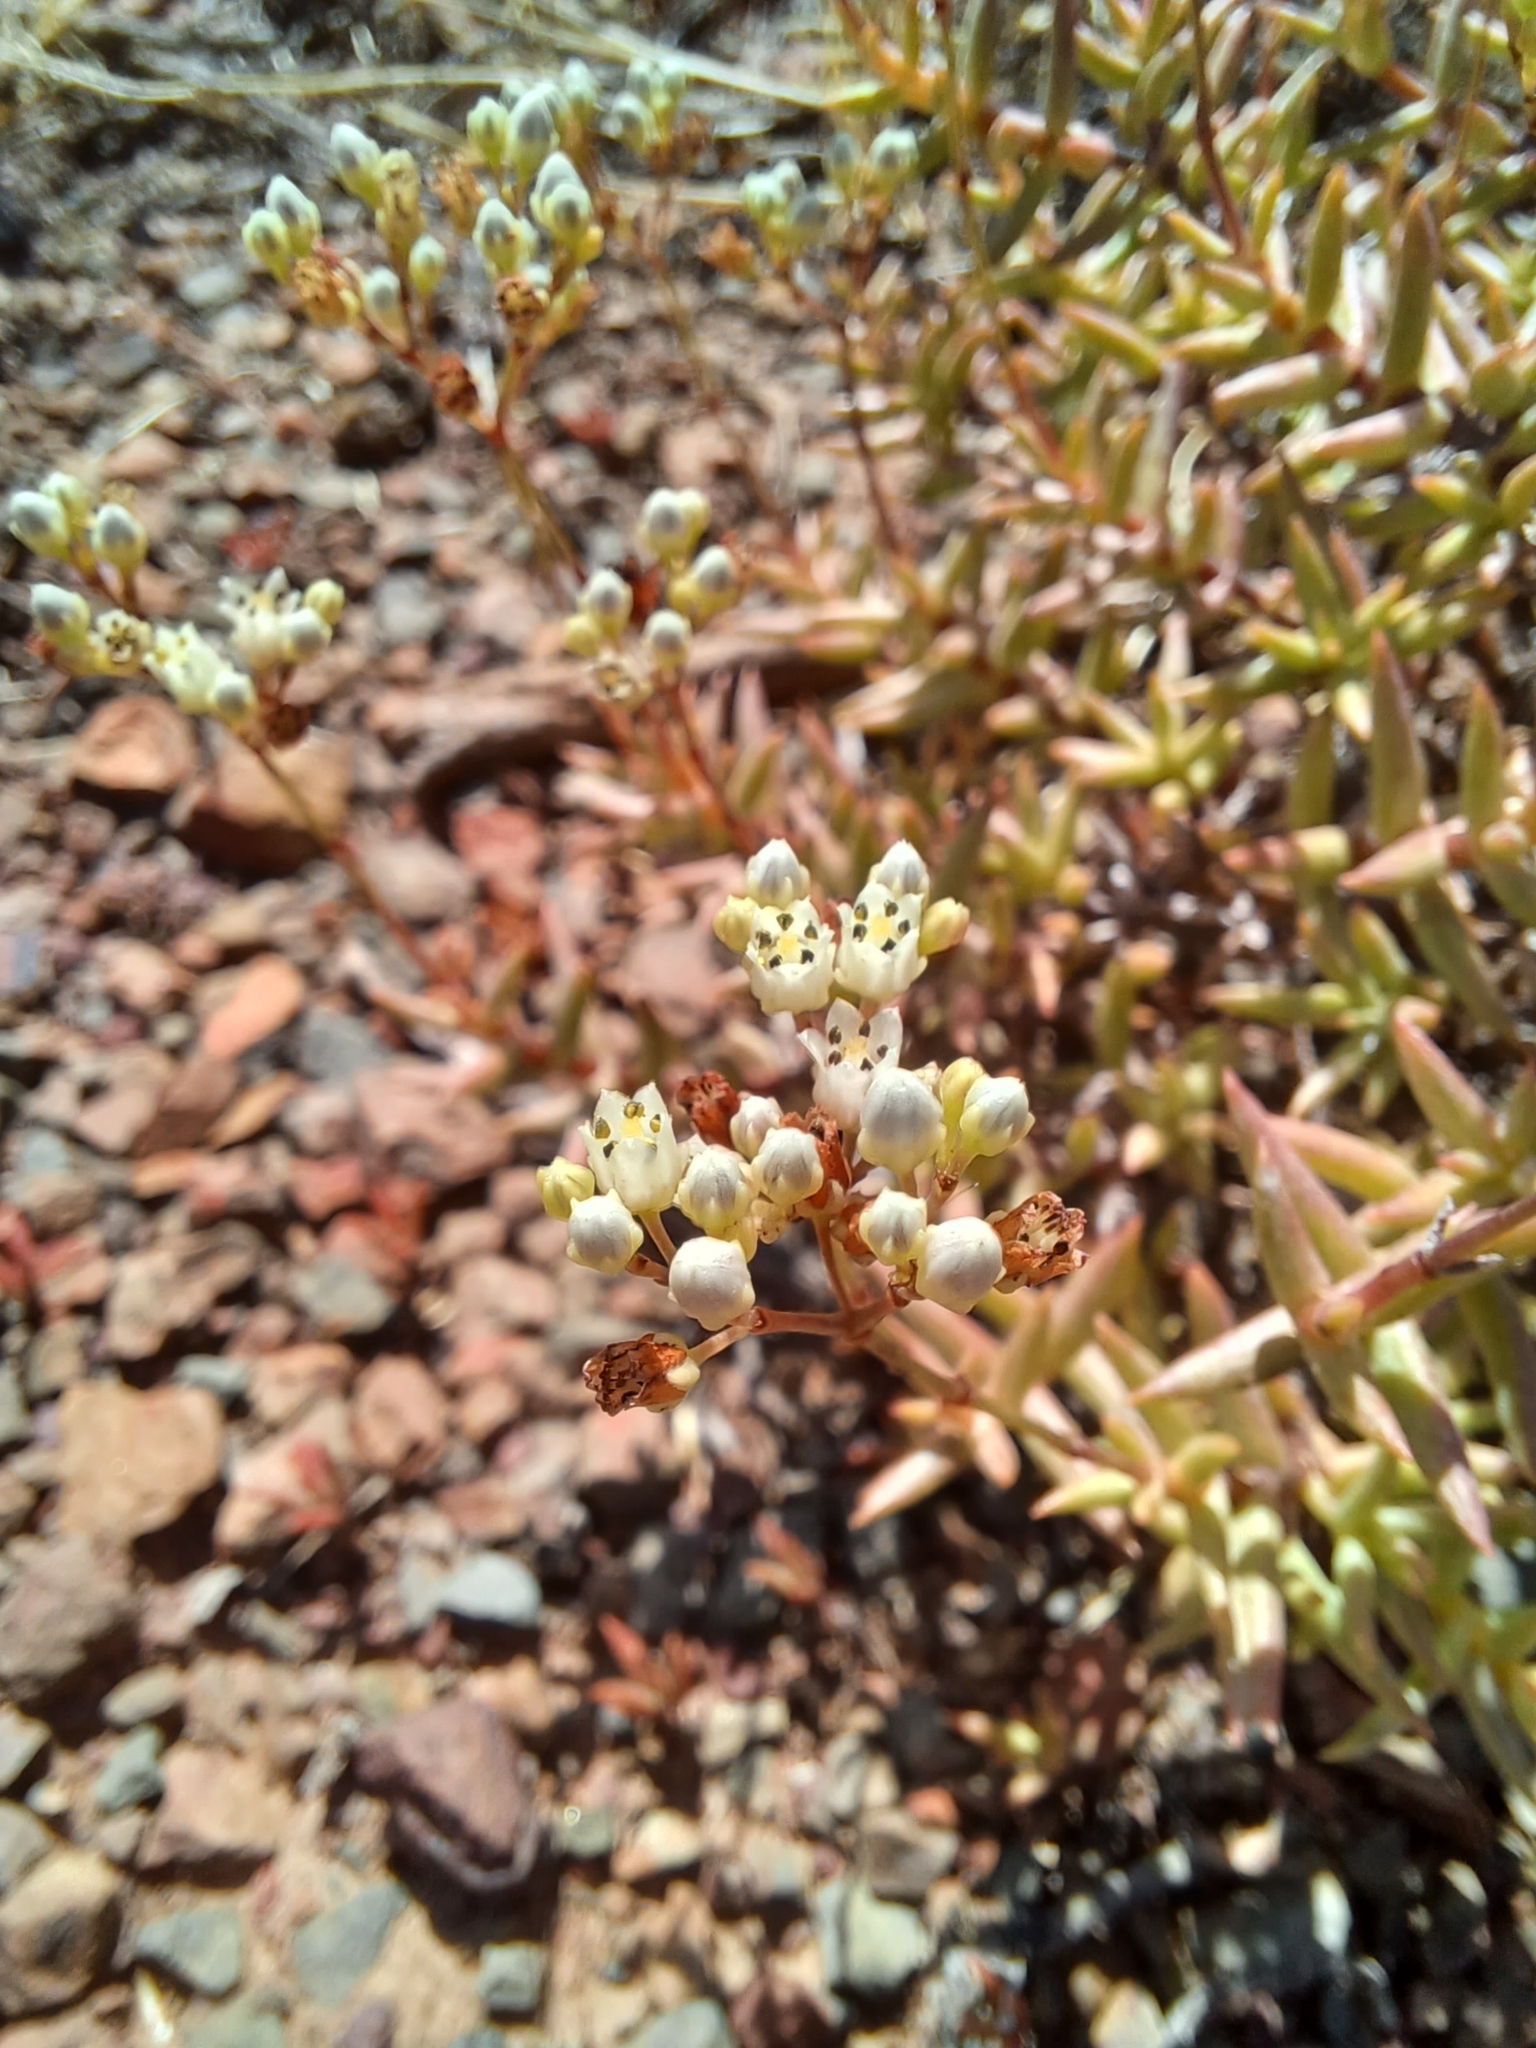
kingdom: Plantae
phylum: Tracheophyta
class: Magnoliopsida
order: Saxifragales
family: Crassulaceae
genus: Crassula
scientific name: Crassula tetragona
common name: Pygmyweed
